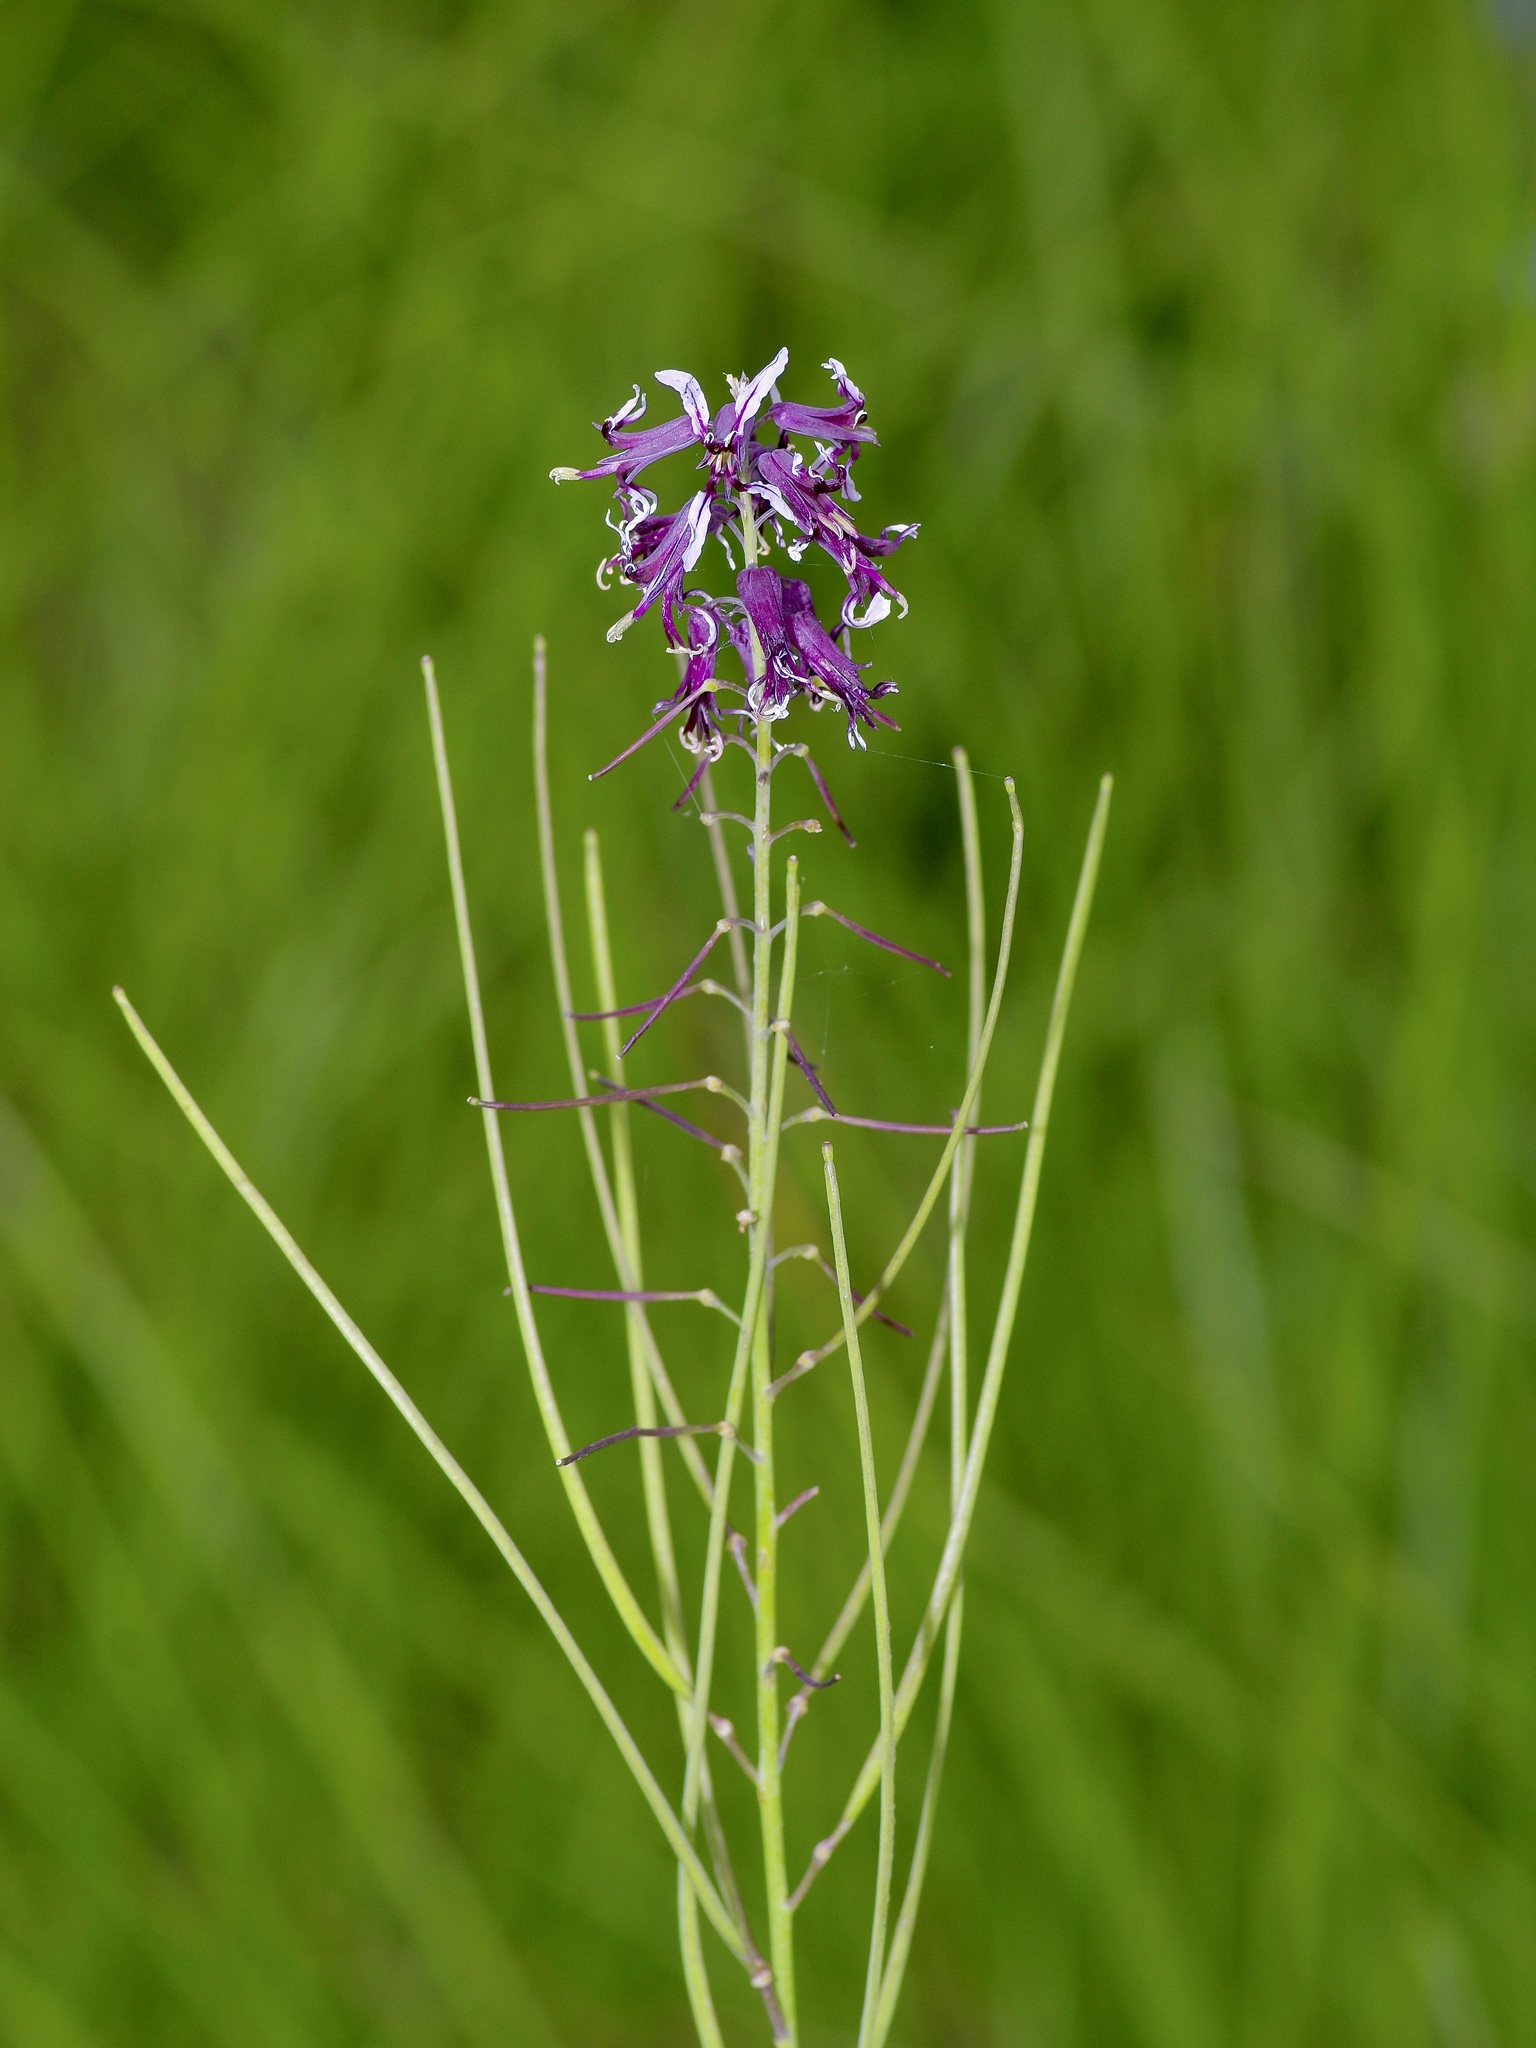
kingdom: Plantae
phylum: Tracheophyta
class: Magnoliopsida
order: Brassicales
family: Brassicaceae
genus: Streptanthus
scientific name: Streptanthus hyacinthoides
